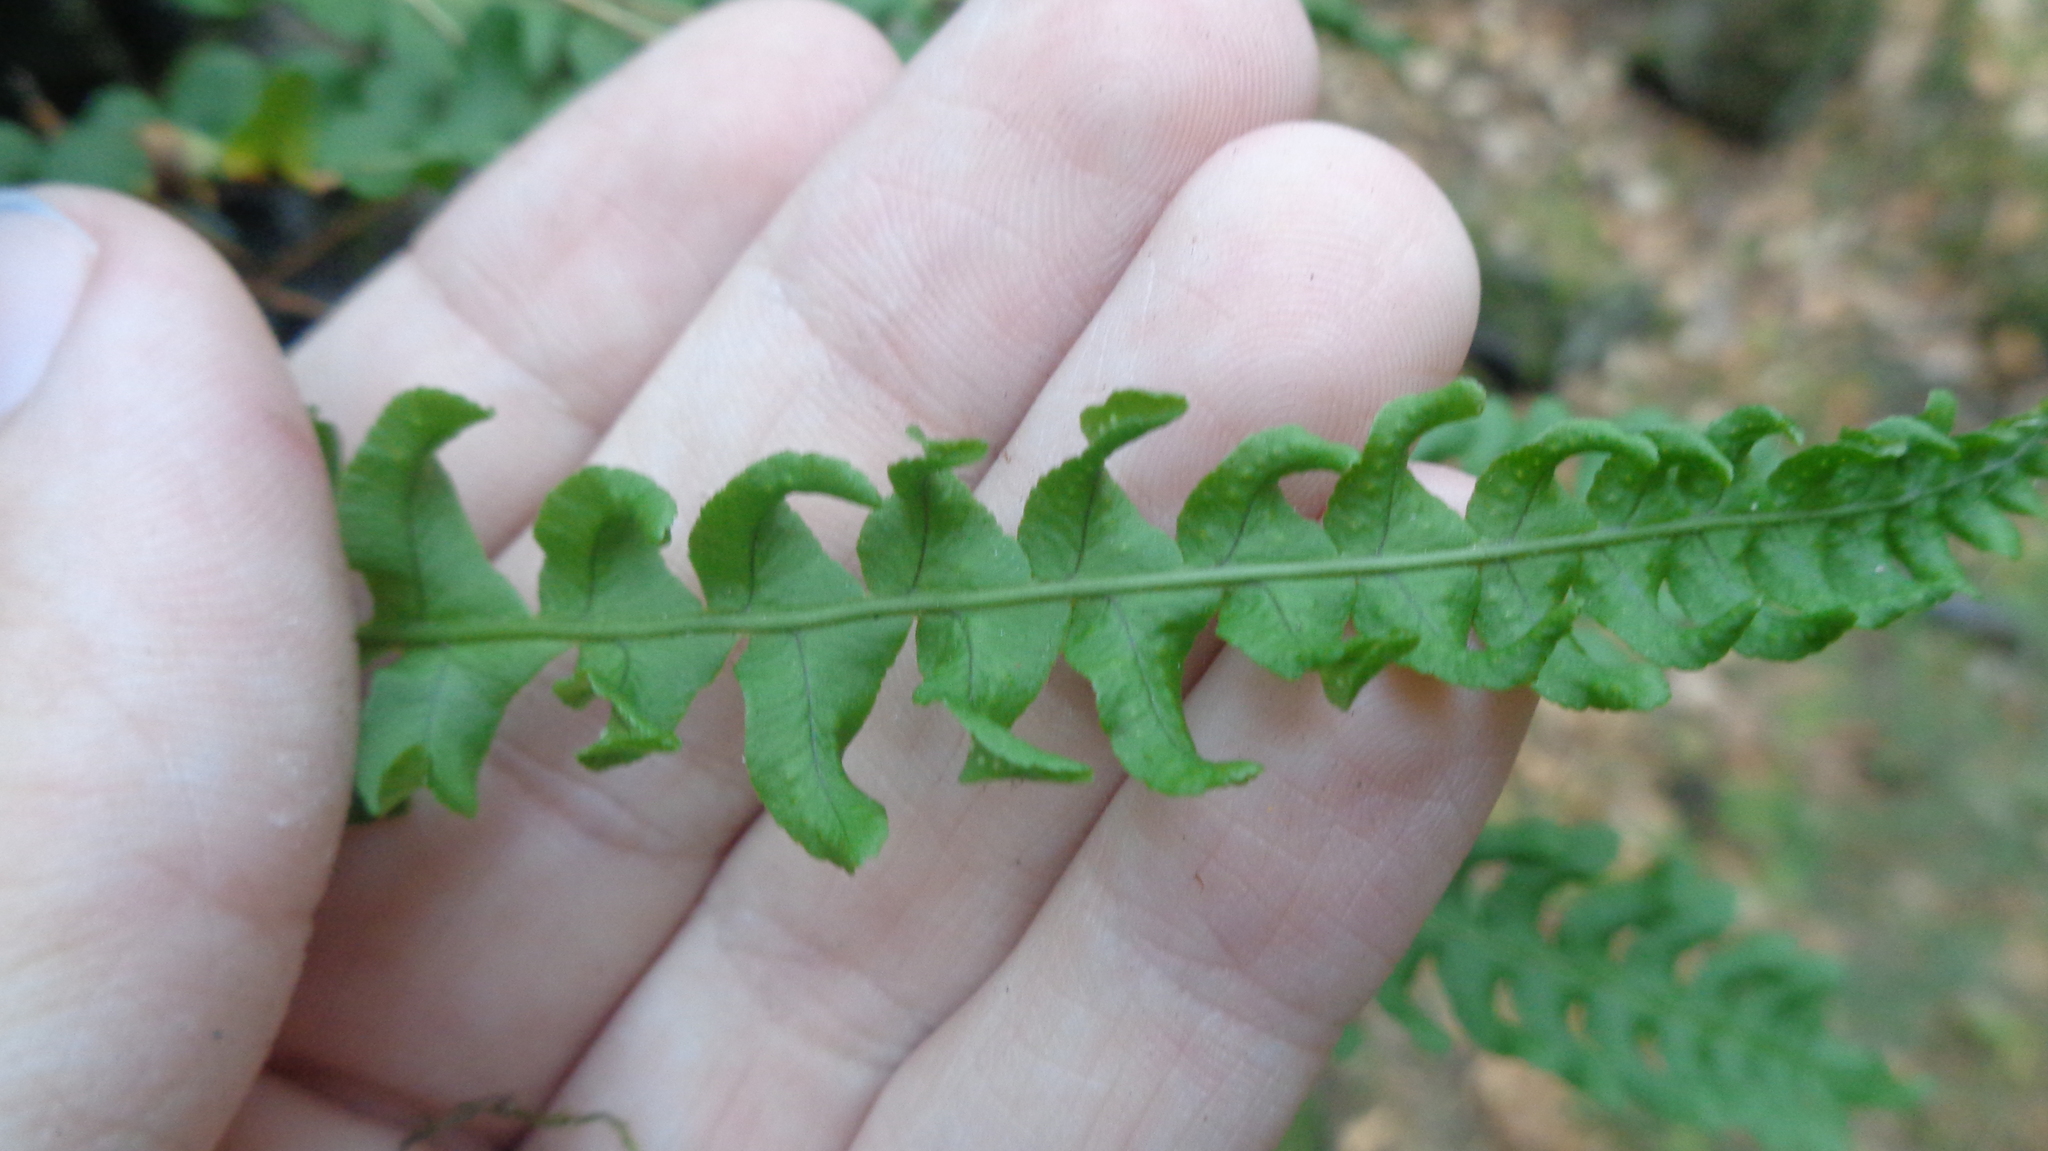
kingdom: Plantae
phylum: Tracheophyta
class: Polypodiopsida
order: Polypodiales
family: Polypodiaceae
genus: Polypodium
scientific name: Polypodium vulgare
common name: Common polypody
